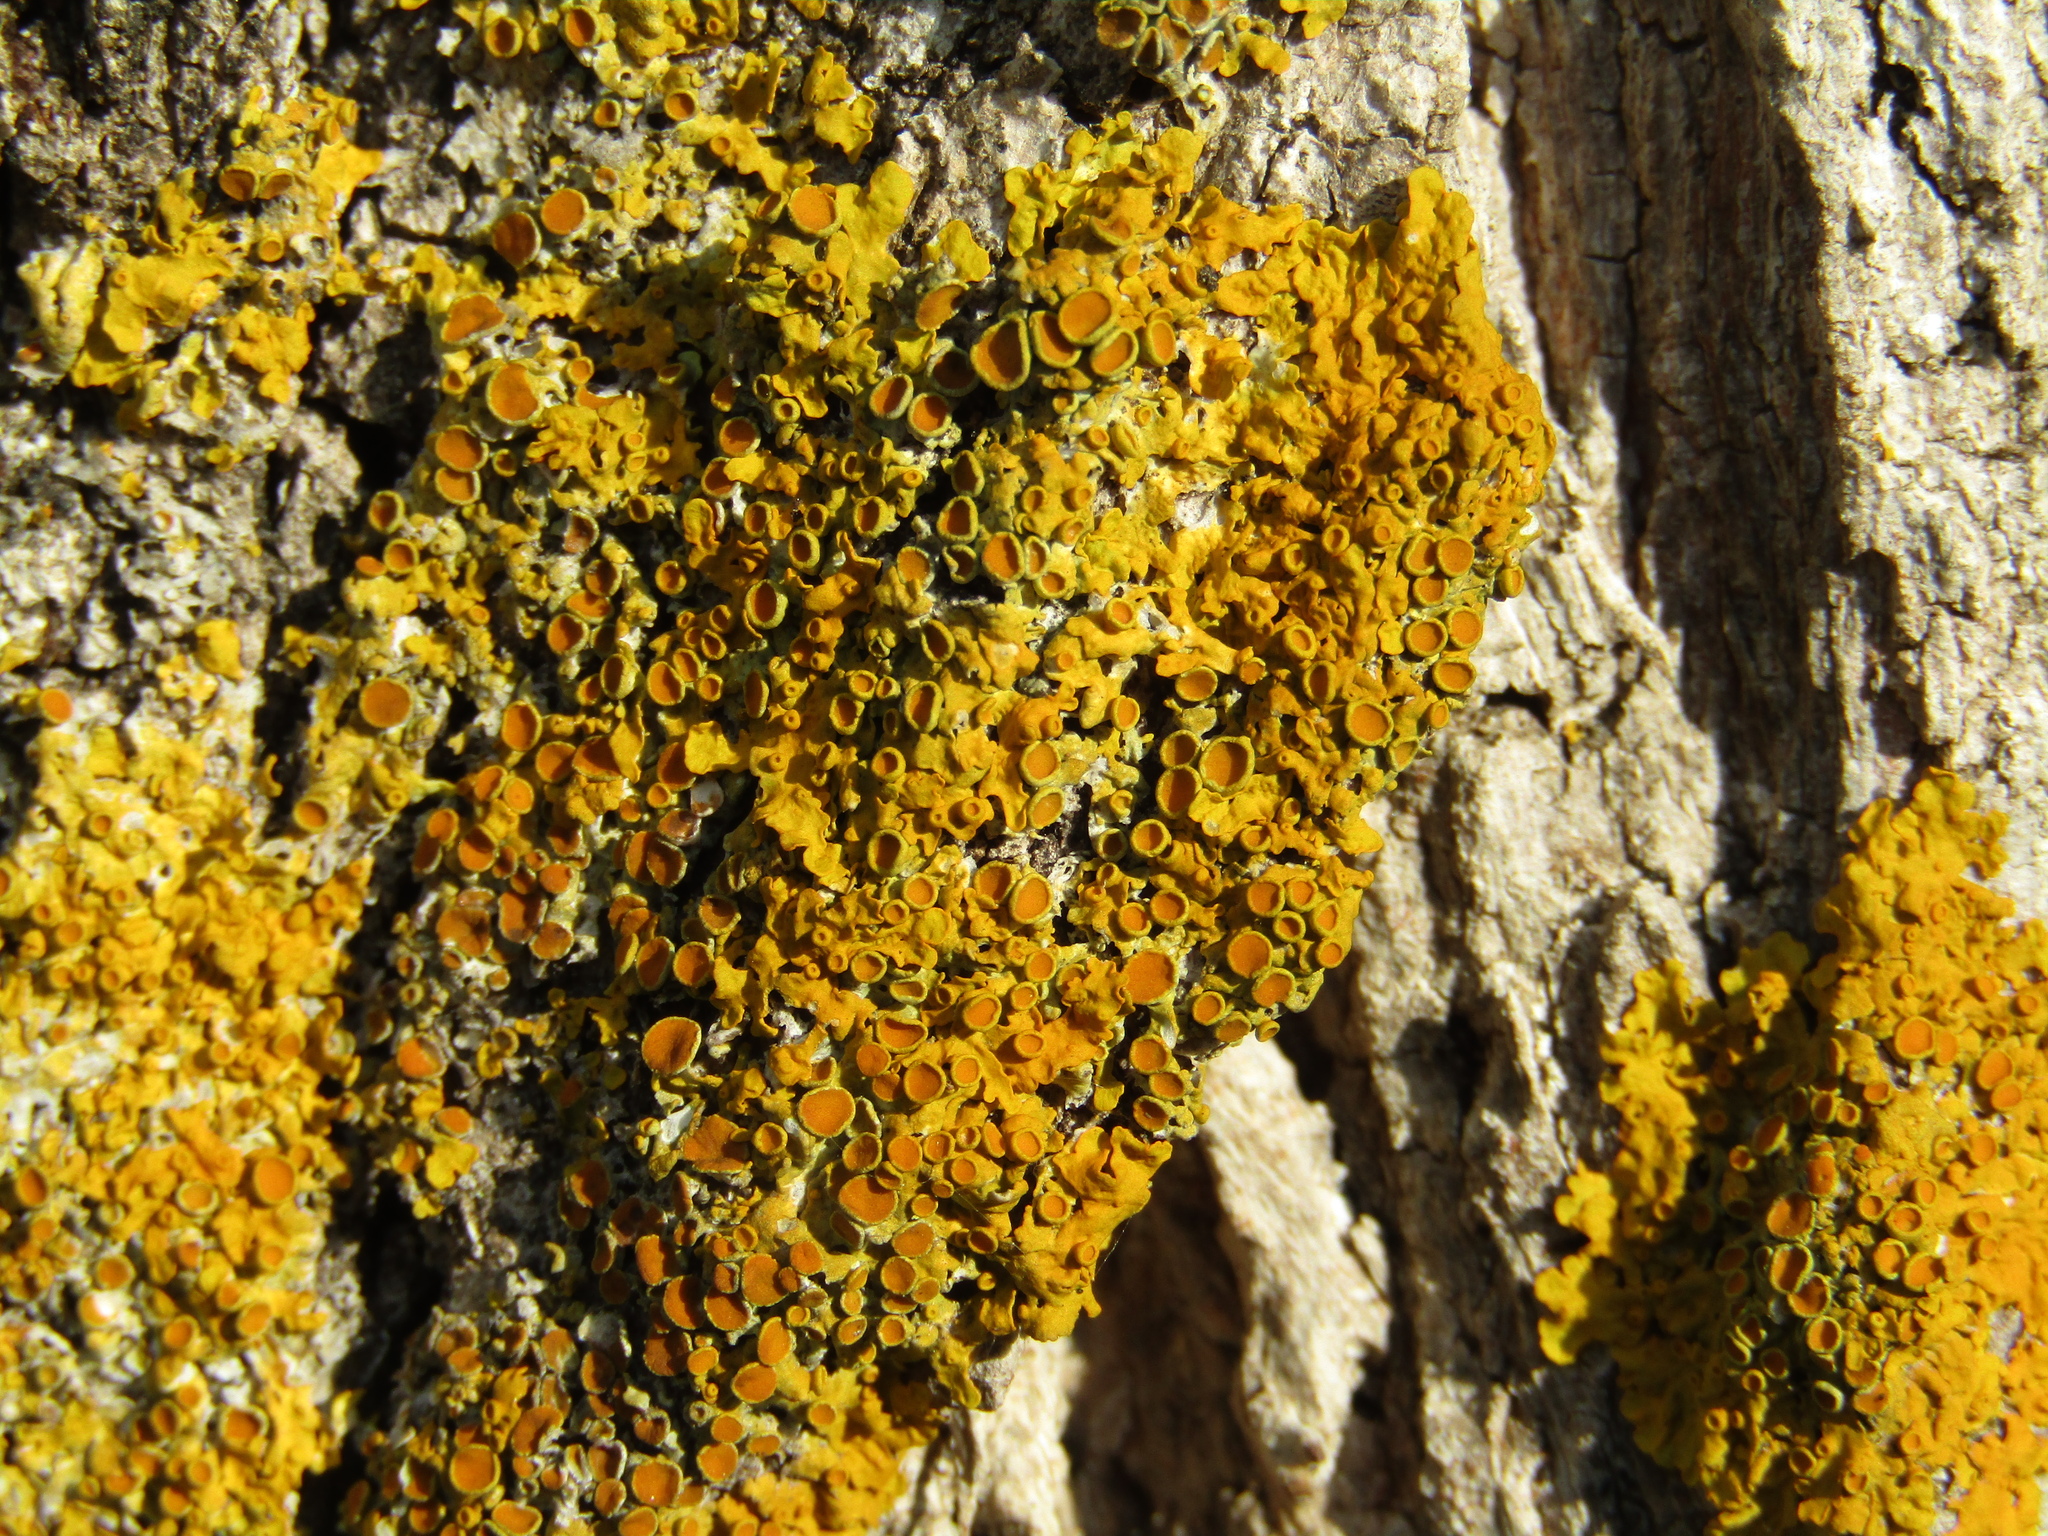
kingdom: Fungi
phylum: Ascomycota
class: Lecanoromycetes
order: Teloschistales
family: Teloschistaceae
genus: Xanthoria
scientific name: Xanthoria parietina
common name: Common orange lichen
